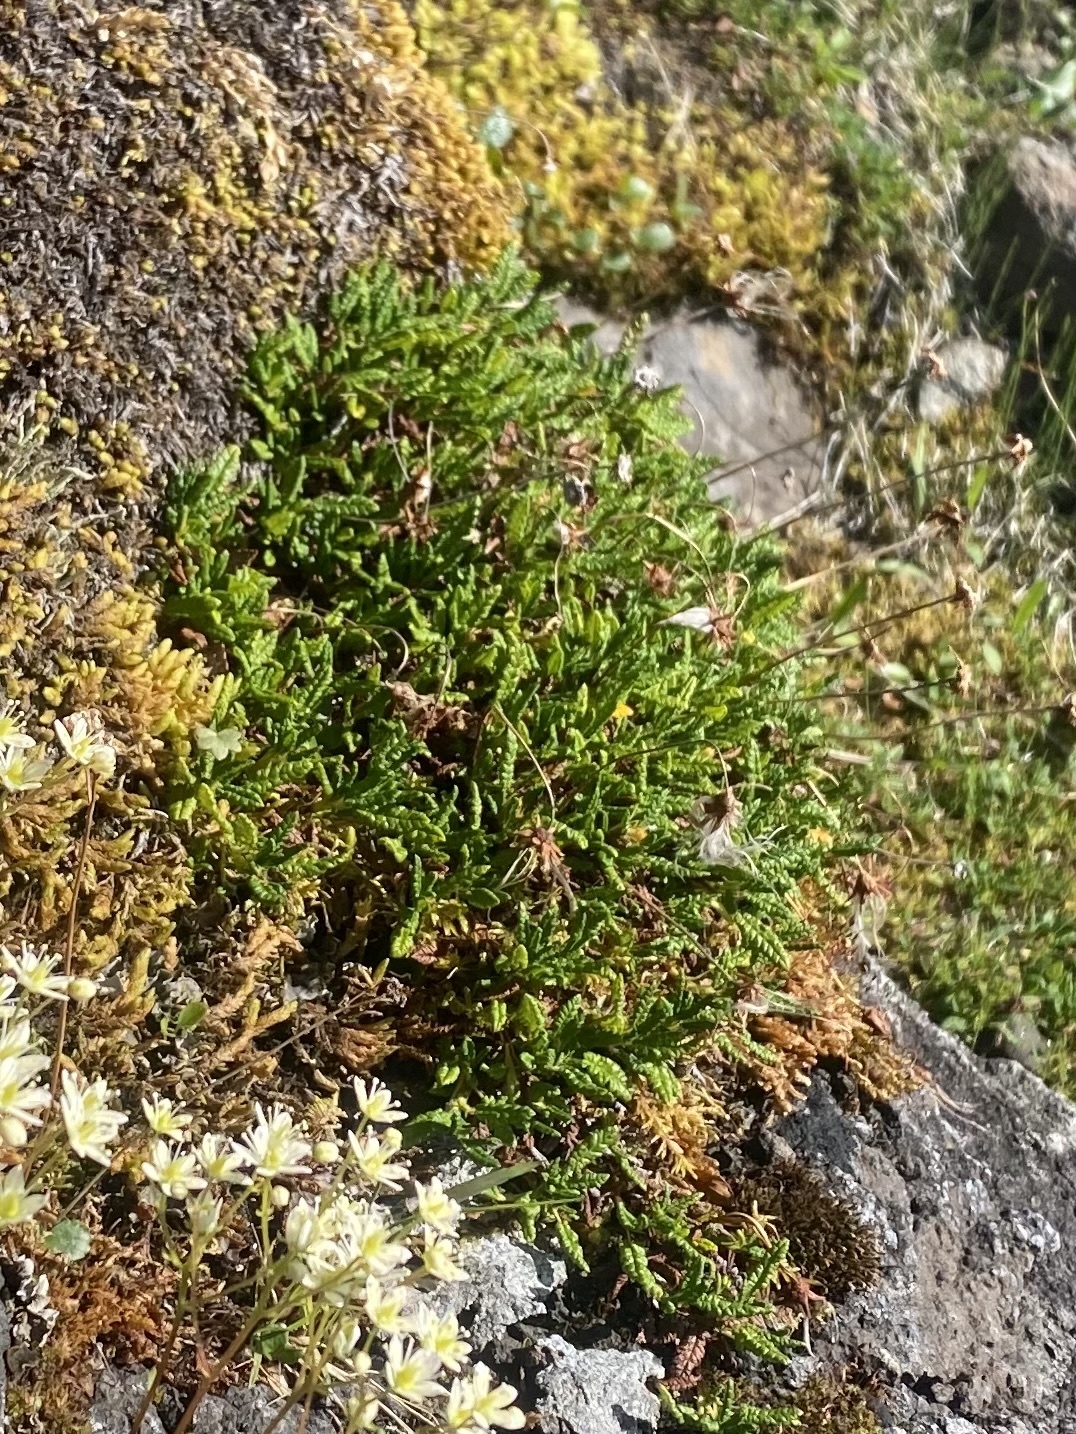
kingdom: Plantae
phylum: Tracheophyta
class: Magnoliopsida
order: Rosales
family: Rosaceae
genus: Dryas
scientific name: Dryas octopetala
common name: Eight-petal mountain-avens
